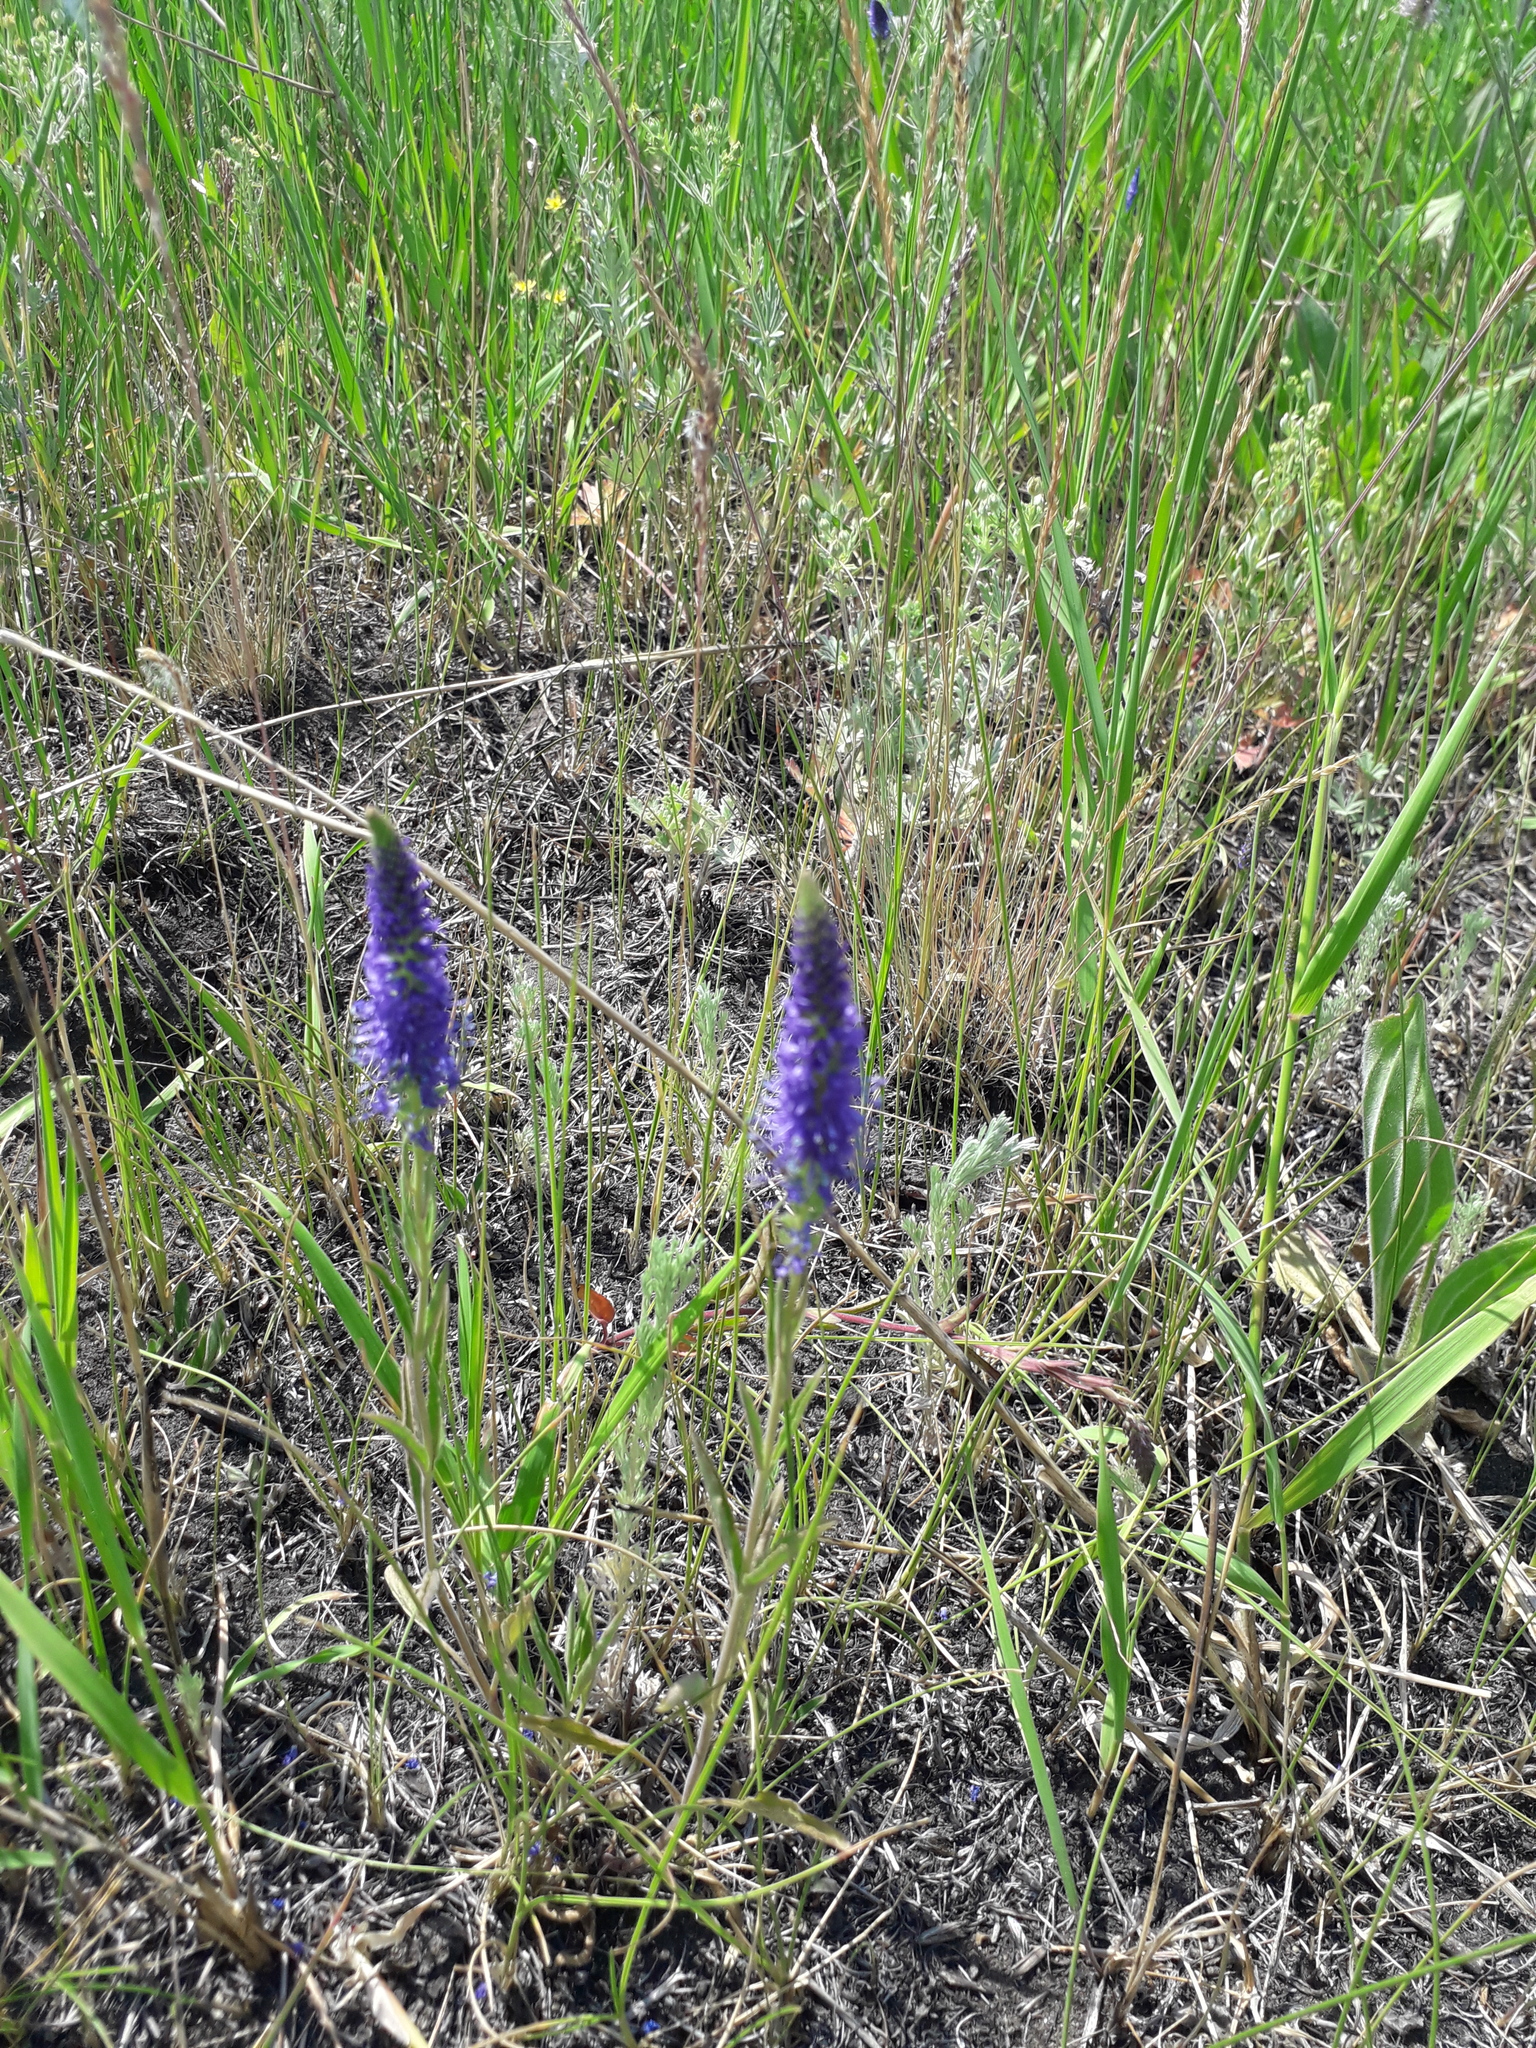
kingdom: Plantae
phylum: Tracheophyta
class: Magnoliopsida
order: Lamiales
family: Plantaginaceae
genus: Veronica
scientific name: Veronica spicata
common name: Spiked speedwell
